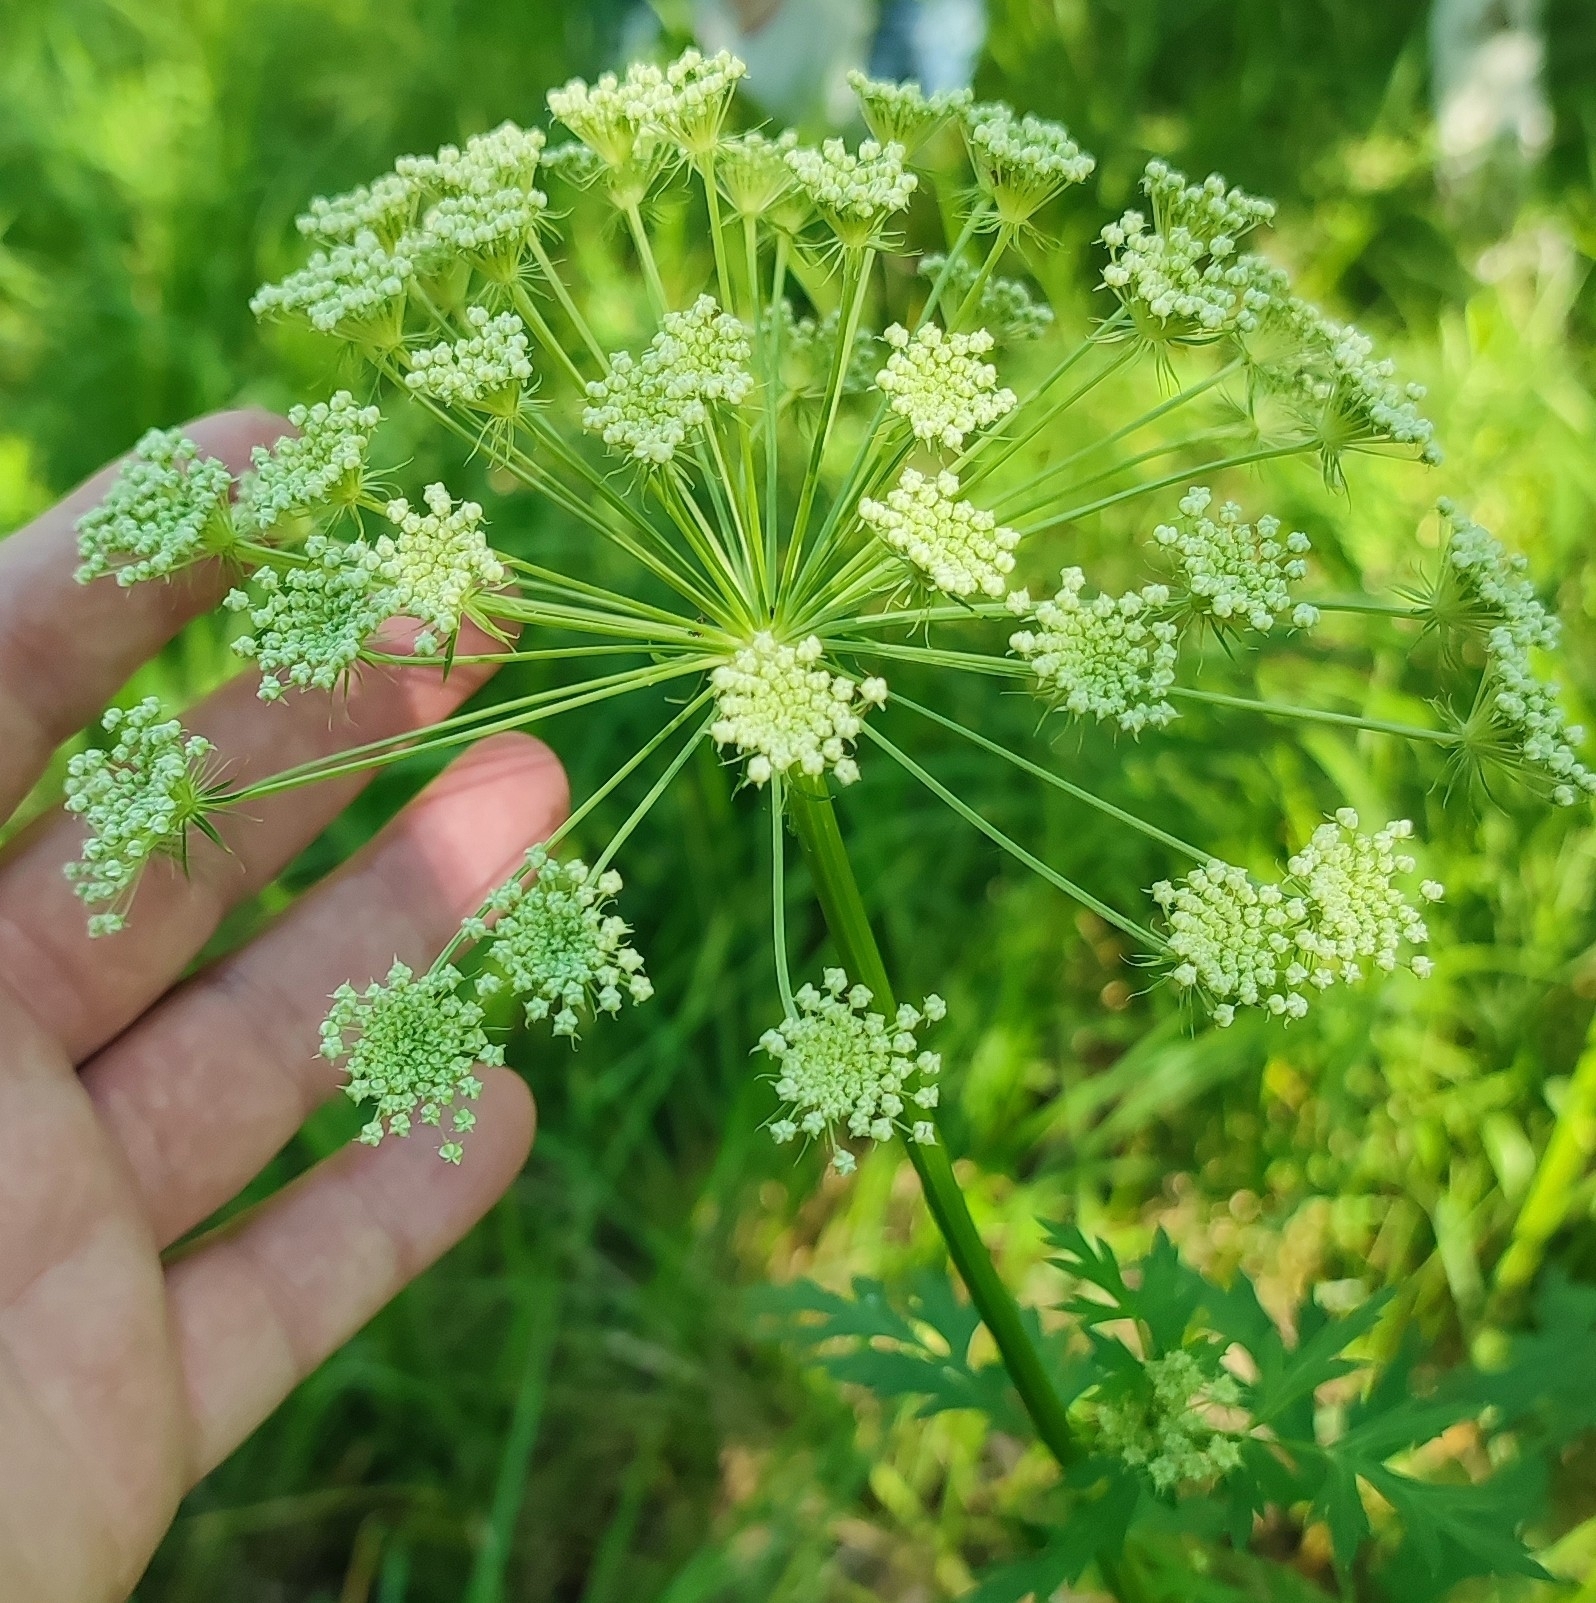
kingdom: Plantae
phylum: Tracheophyta
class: Magnoliopsida
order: Apiales
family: Apiaceae
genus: Seseli
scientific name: Seseli libanotis
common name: Mooncarrot
